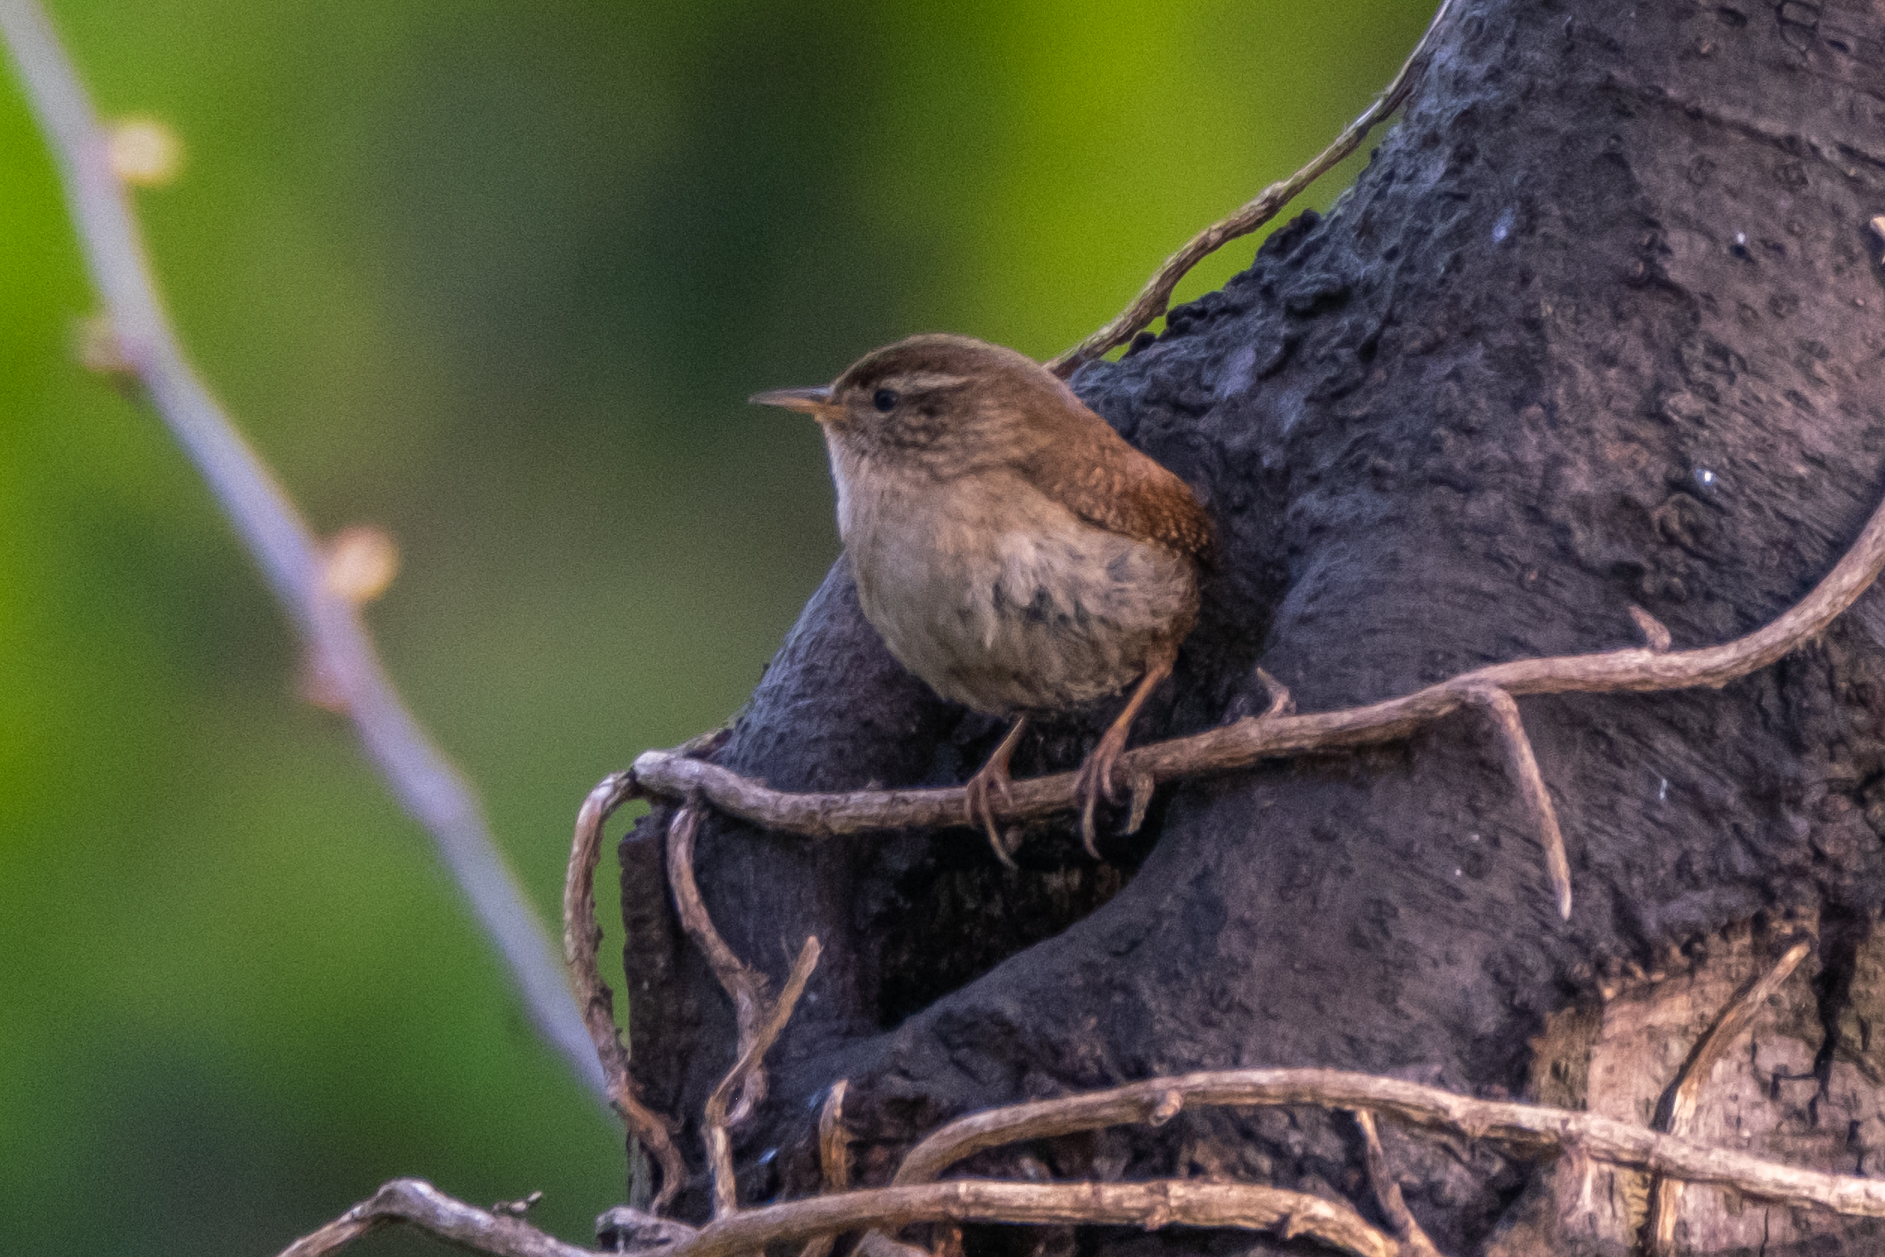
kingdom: Animalia
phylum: Chordata
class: Aves
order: Passeriformes
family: Troglodytidae
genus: Troglodytes
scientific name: Troglodytes troglodytes
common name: Eurasian wren
